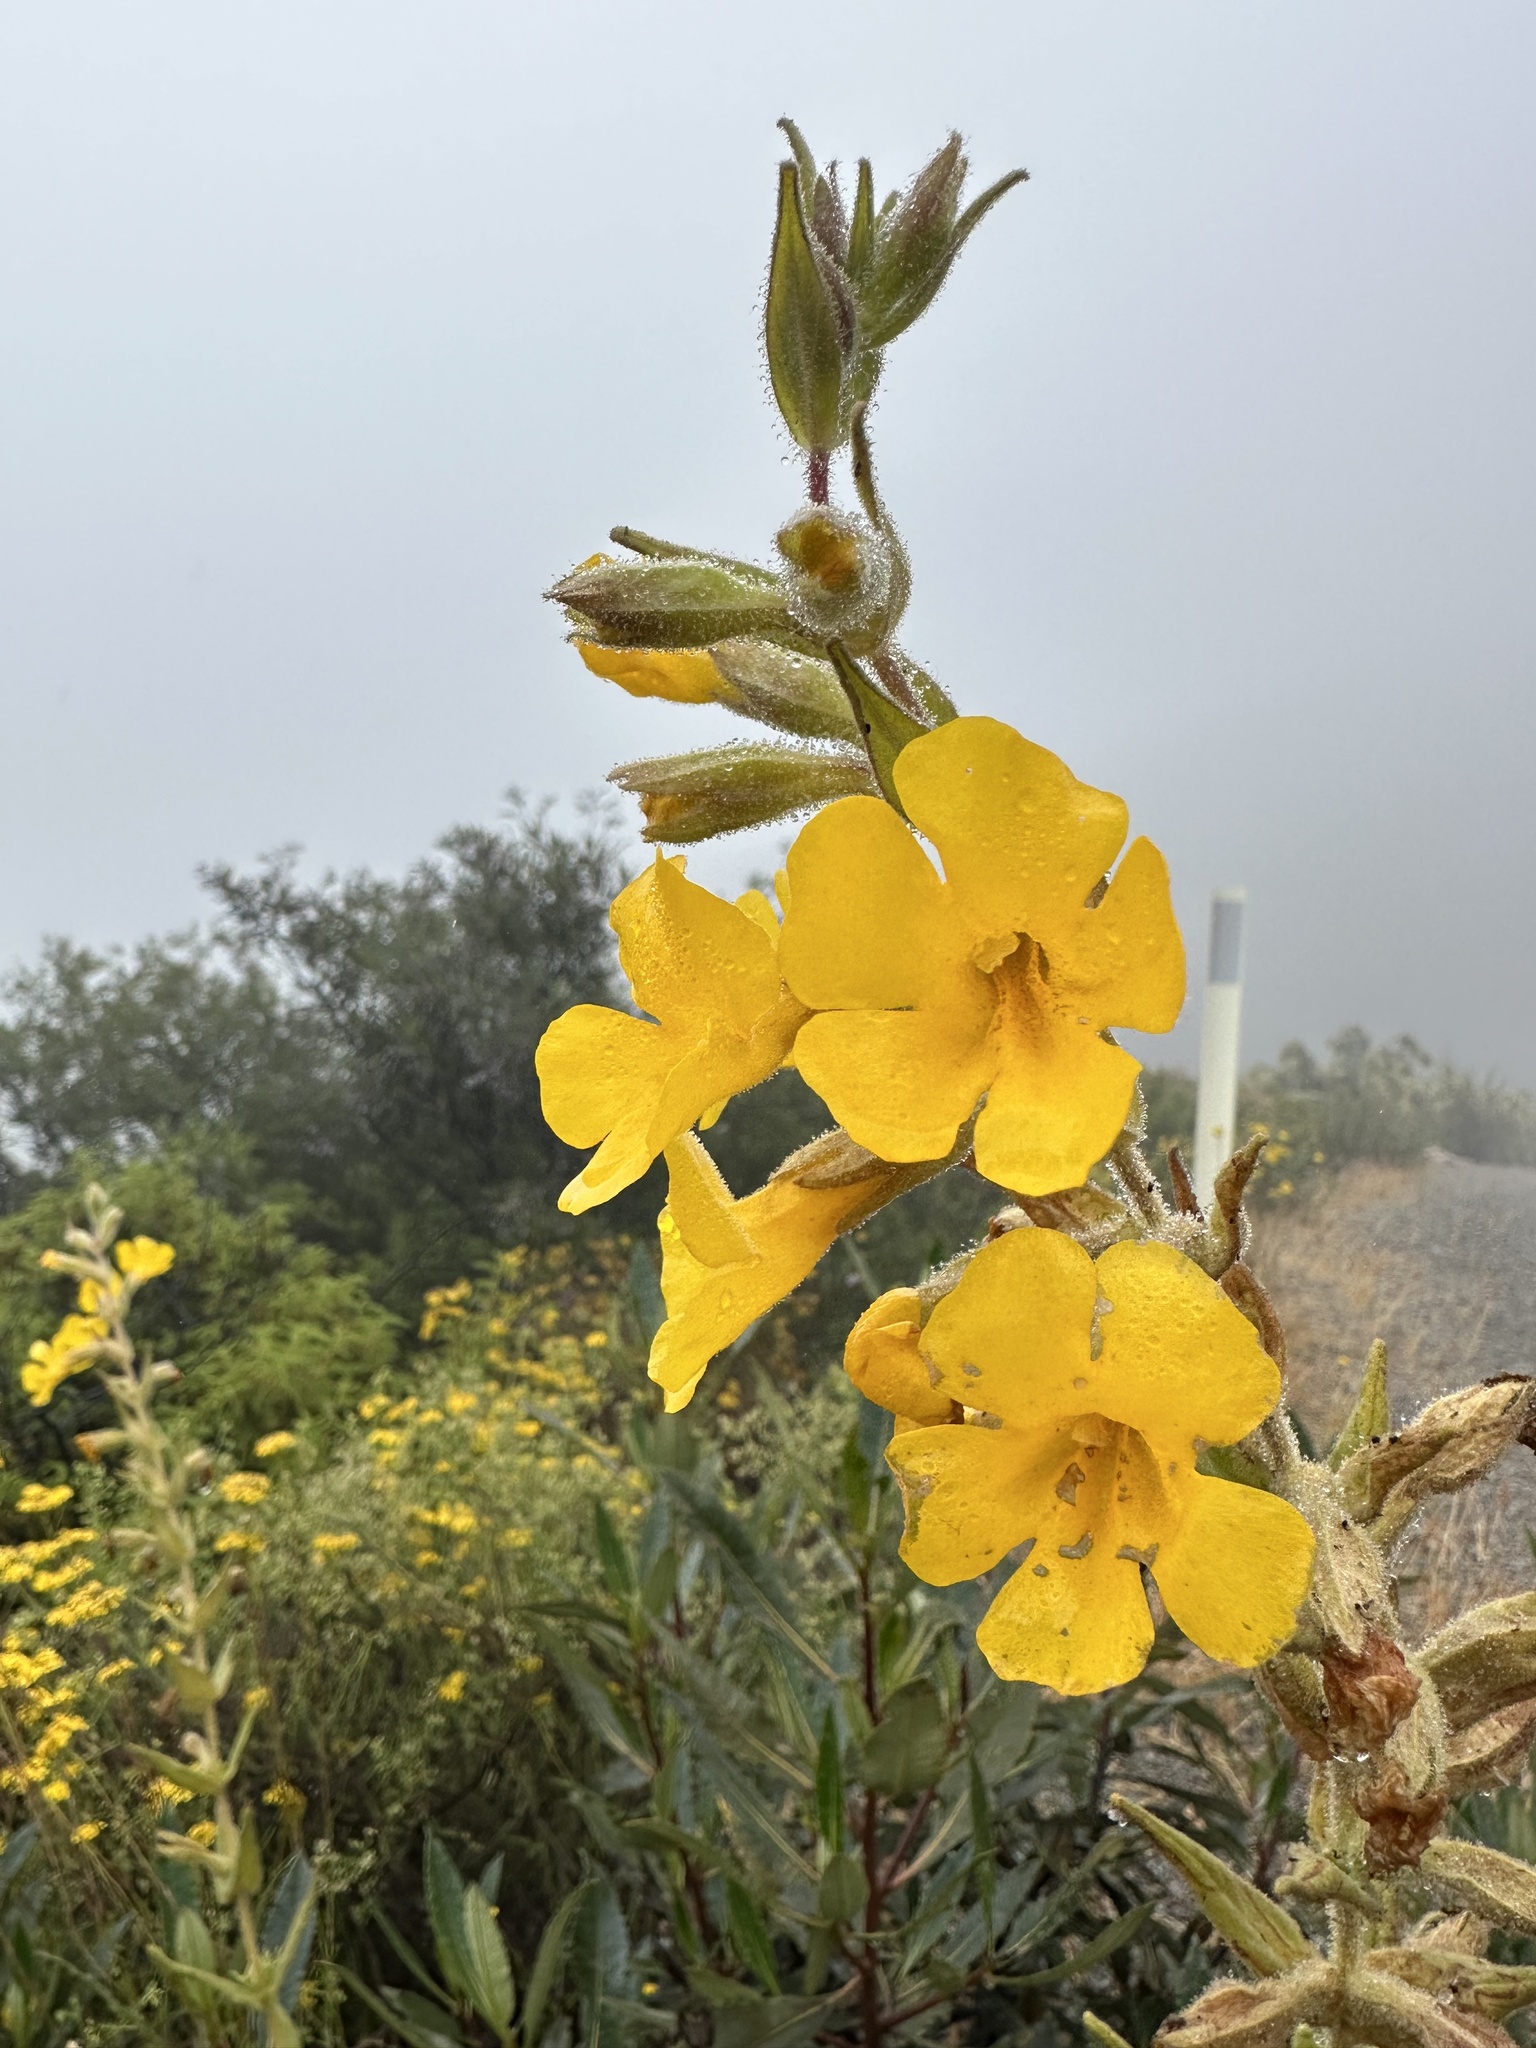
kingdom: Plantae
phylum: Tracheophyta
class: Magnoliopsida
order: Lamiales
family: Phrymaceae
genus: Diplacus
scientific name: Diplacus clevelandii
